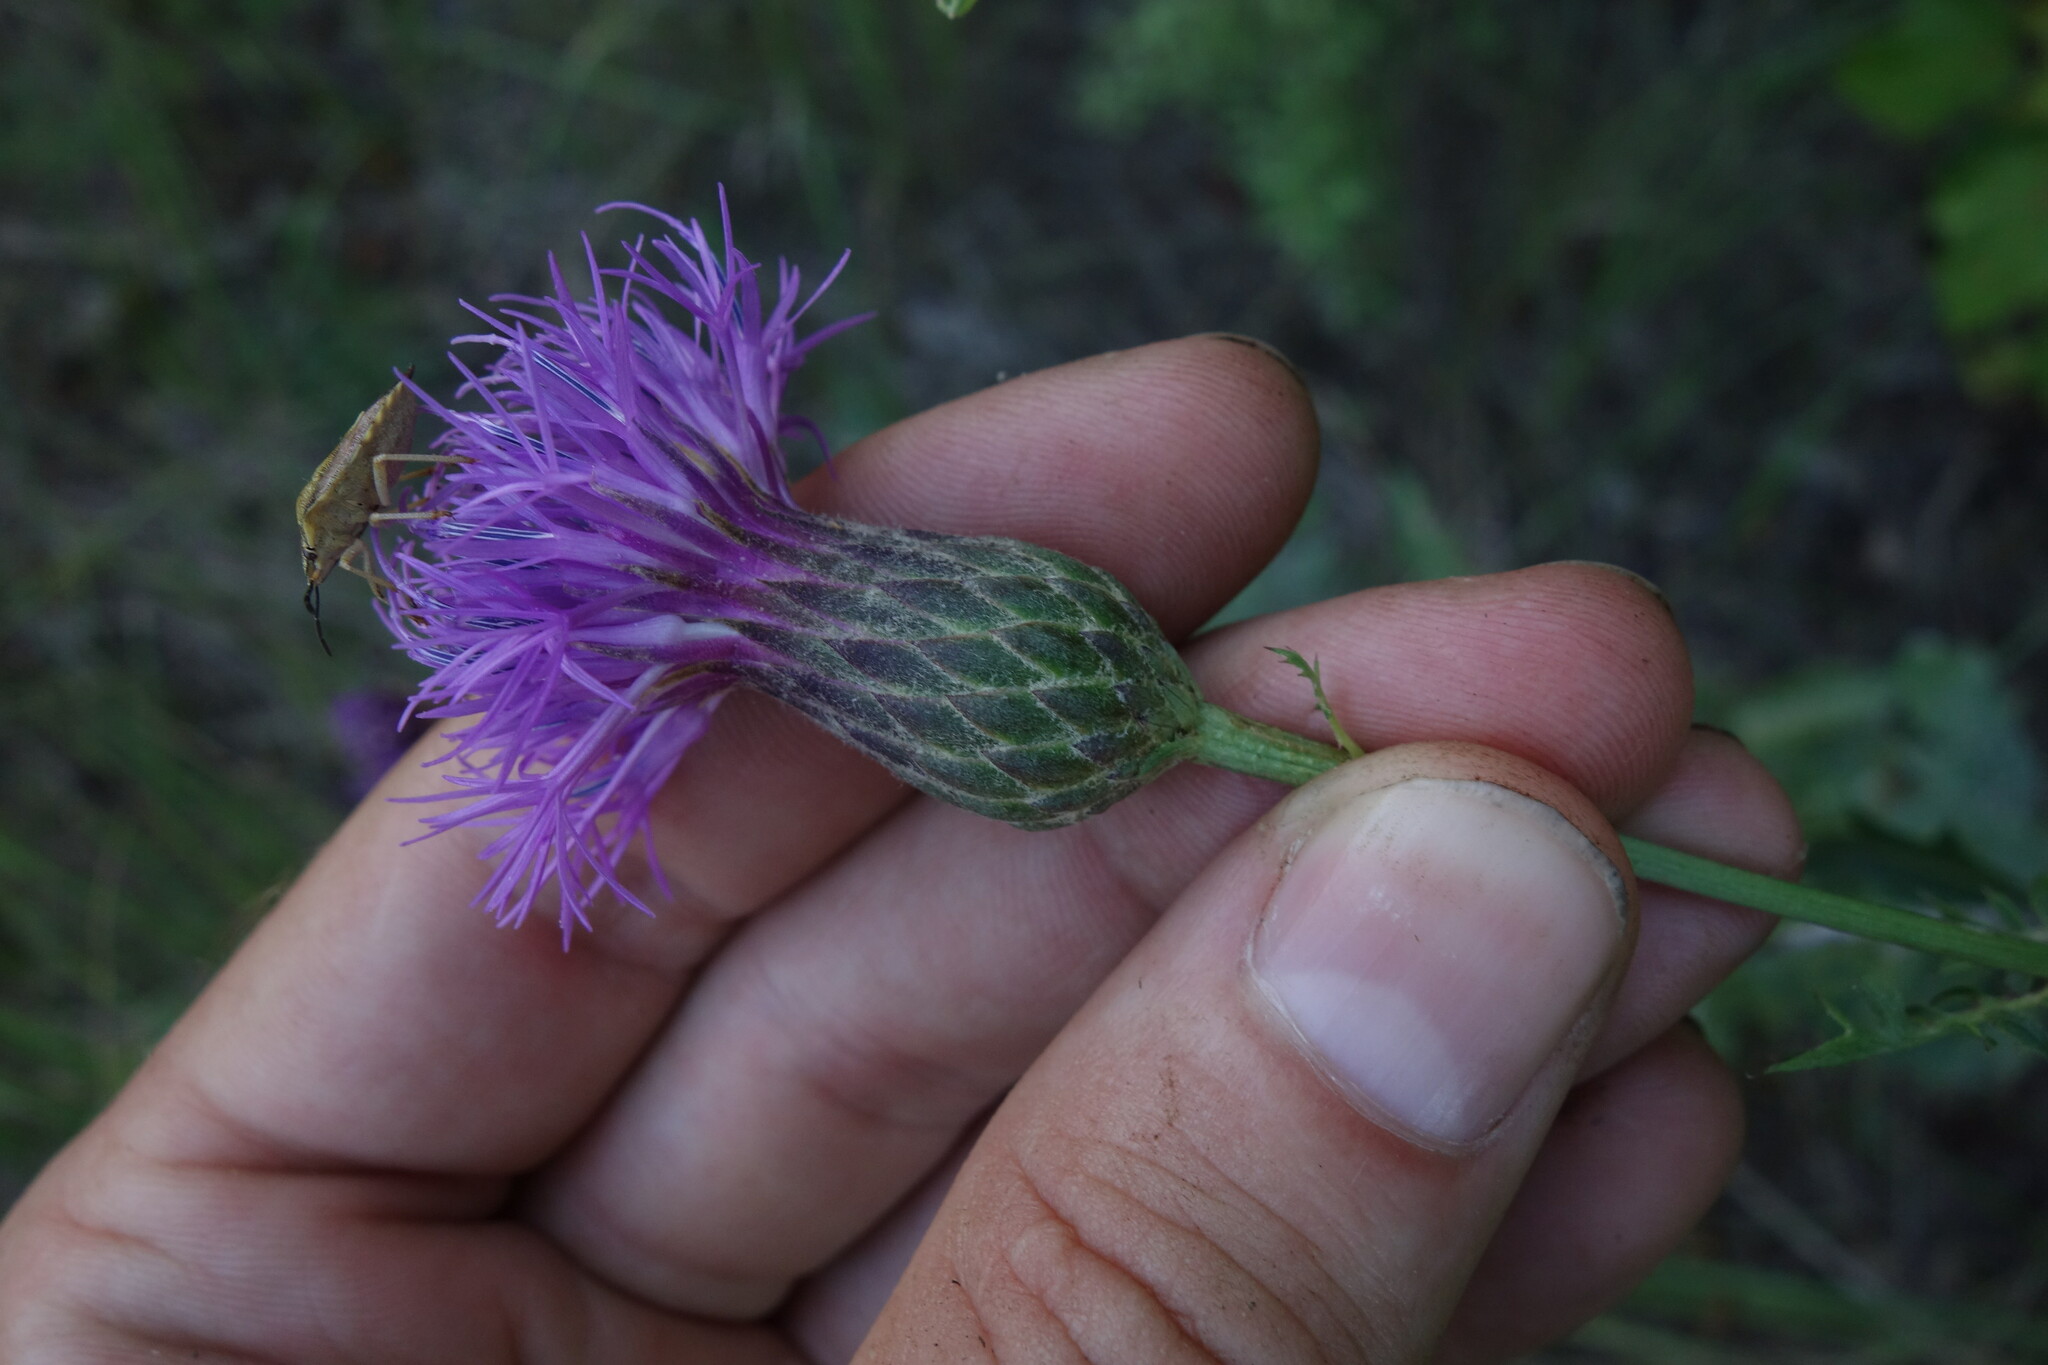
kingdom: Plantae
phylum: Tracheophyta
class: Magnoliopsida
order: Asterales
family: Asteraceae
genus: Serratula
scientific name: Serratula coronata
